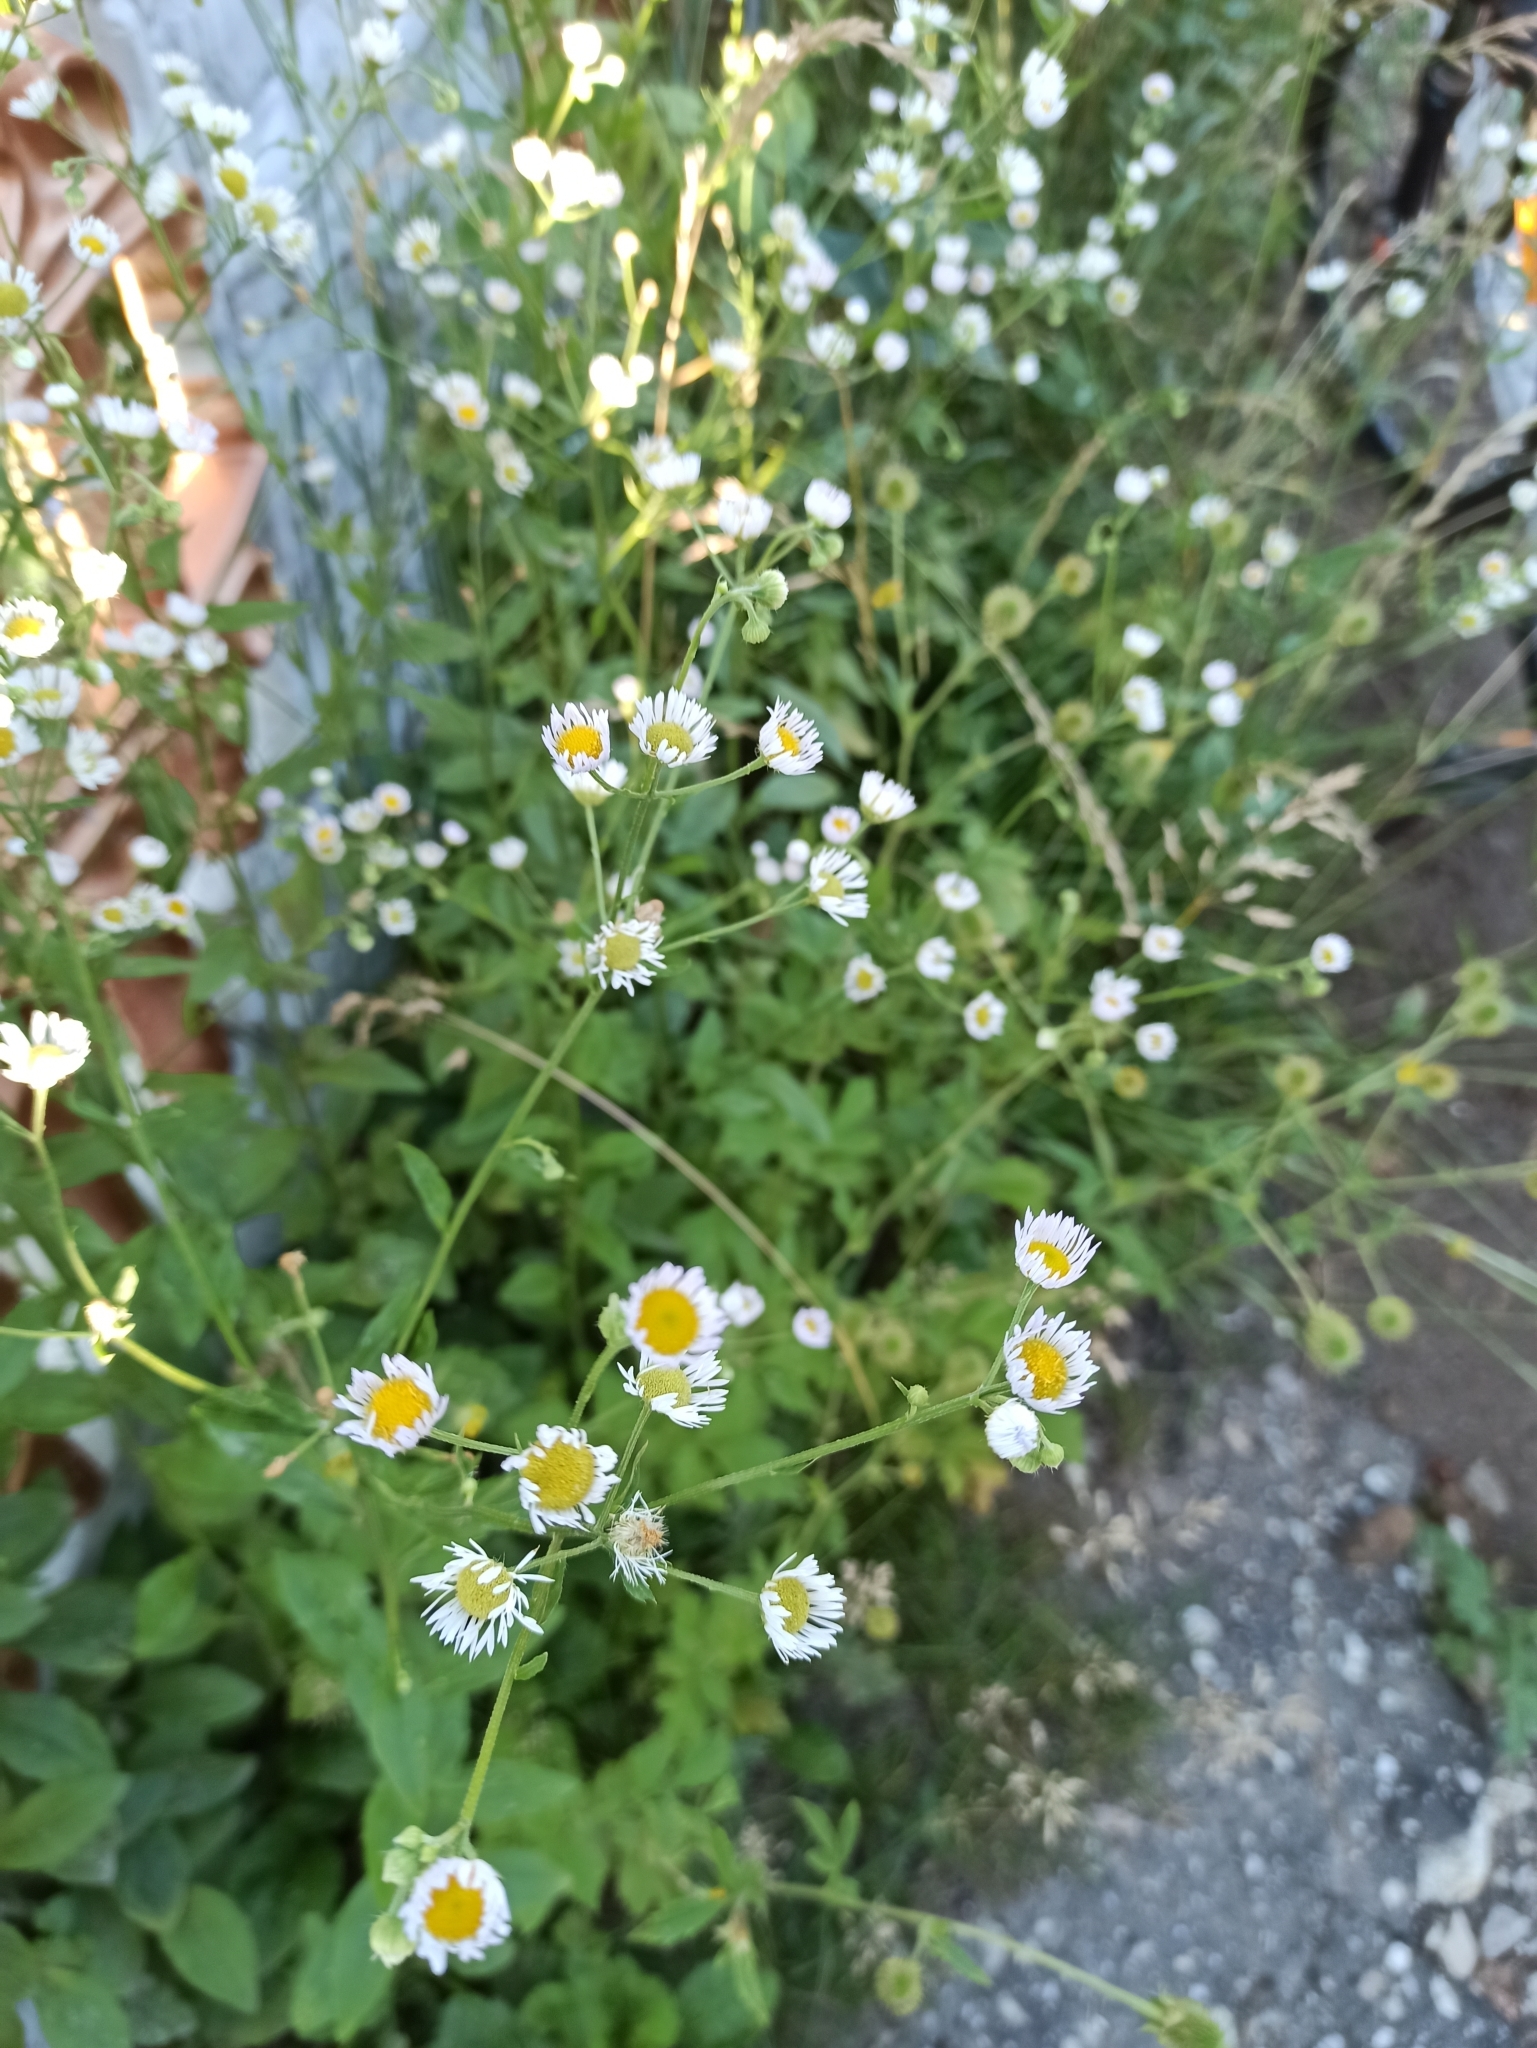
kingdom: Plantae
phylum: Tracheophyta
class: Magnoliopsida
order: Asterales
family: Asteraceae
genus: Erigeron
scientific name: Erigeron strigosus
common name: Common eastern fleabane
